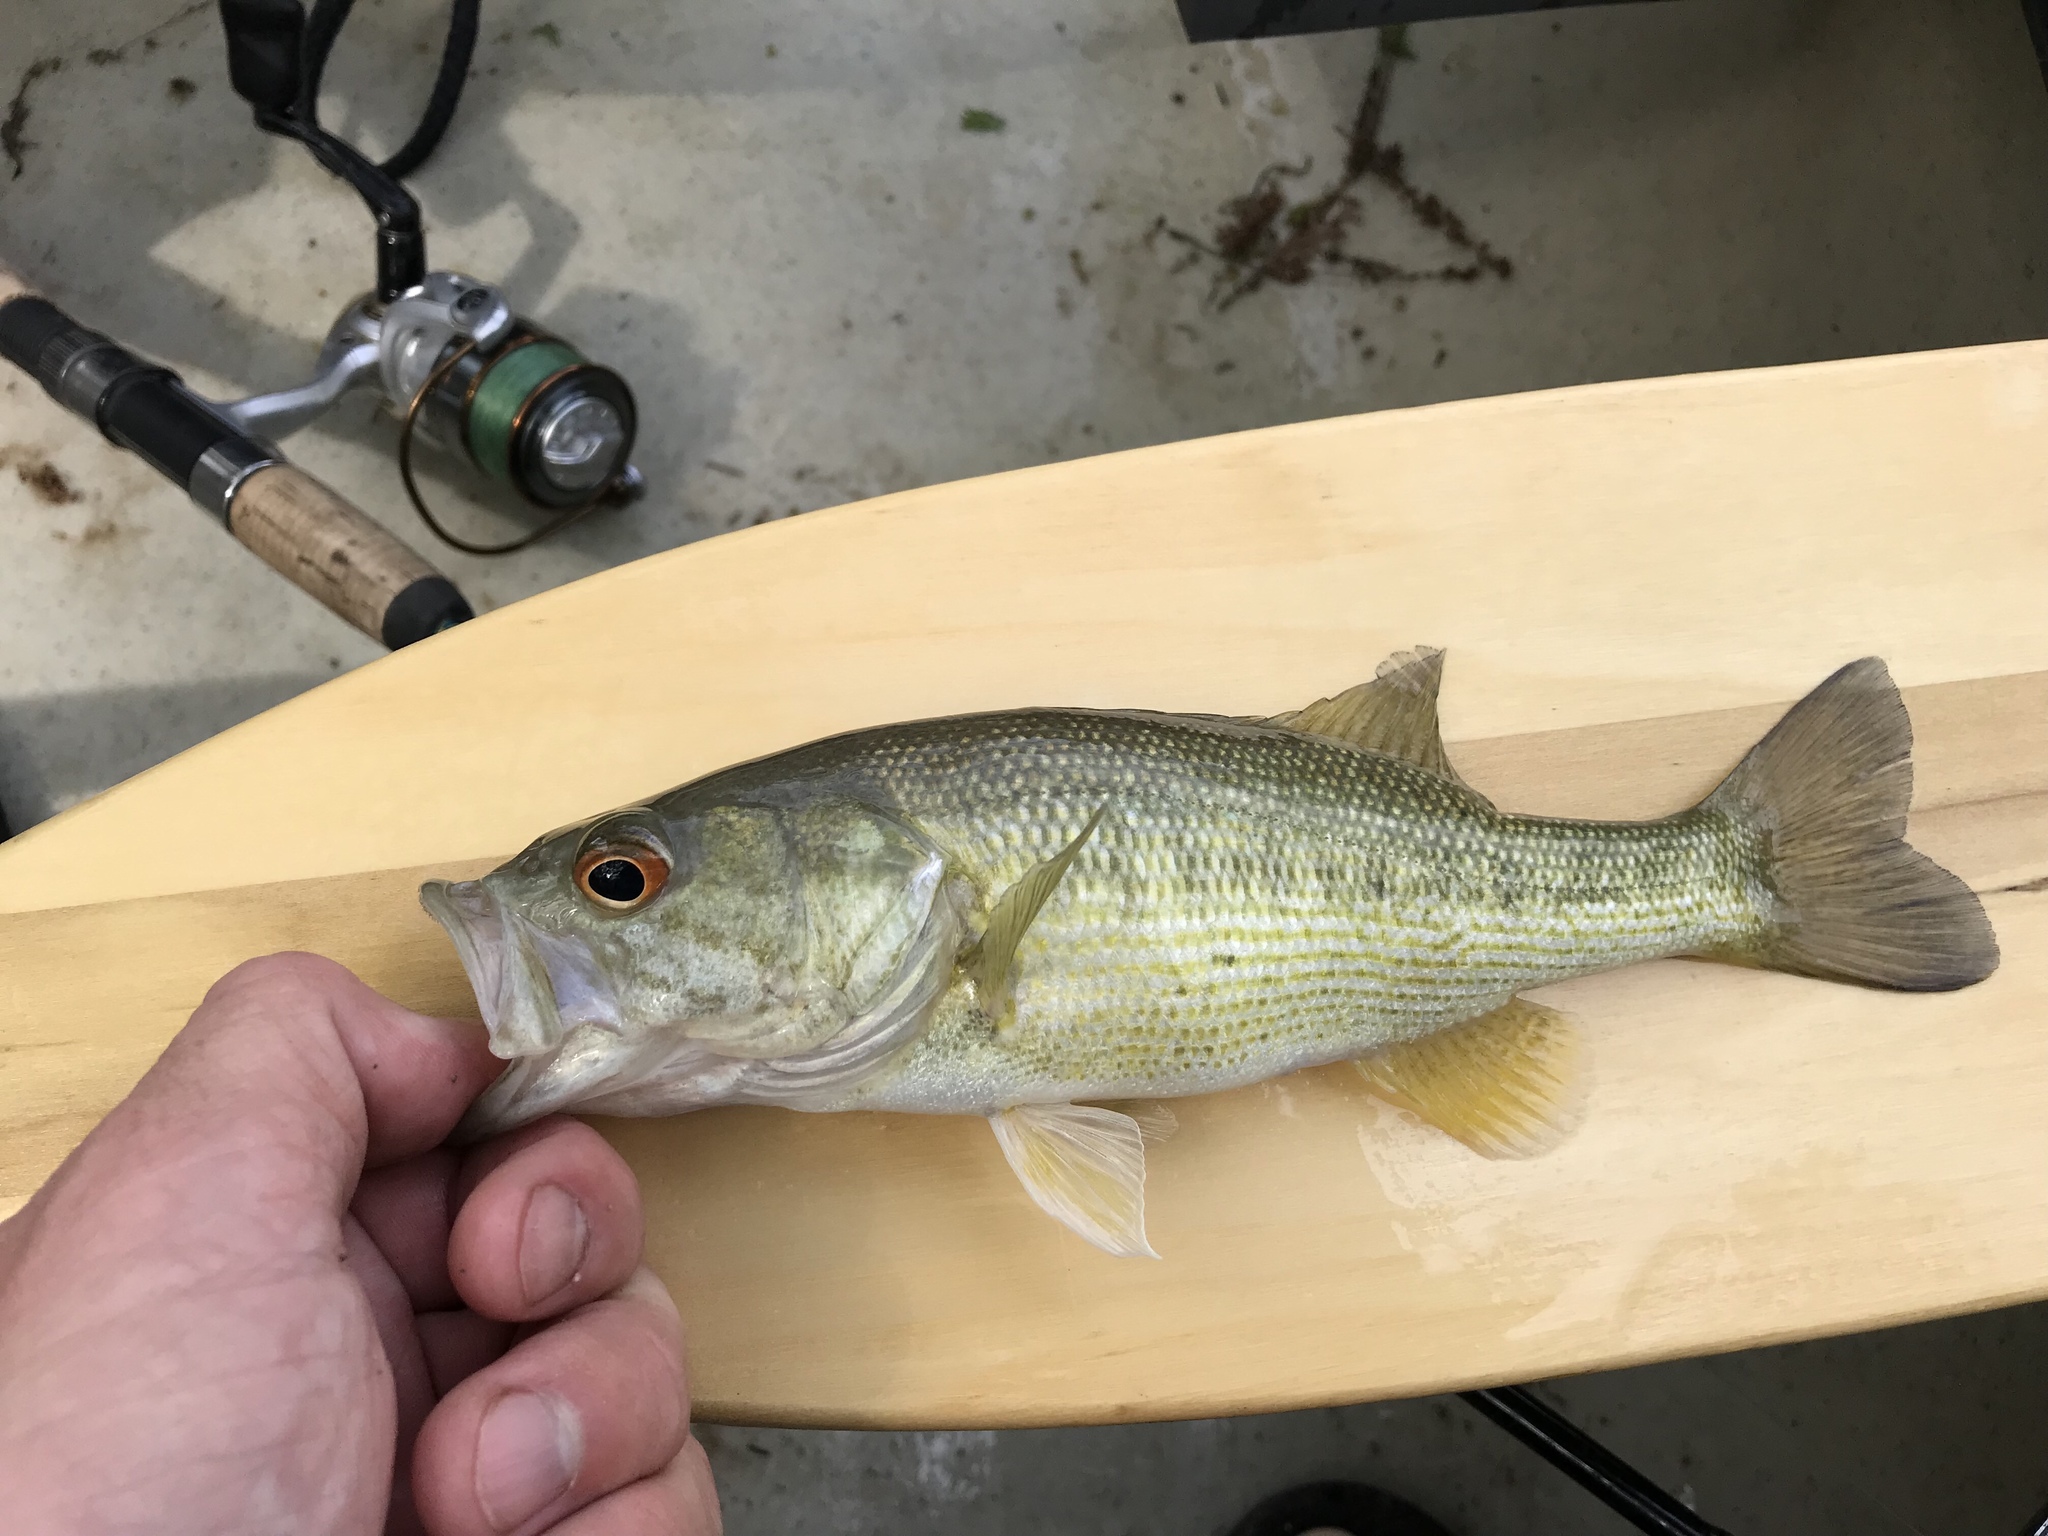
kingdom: Animalia
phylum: Chordata
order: Perciformes
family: Centrarchidae
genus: Micropterus
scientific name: Micropterus treculii
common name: Guadalupe bass
